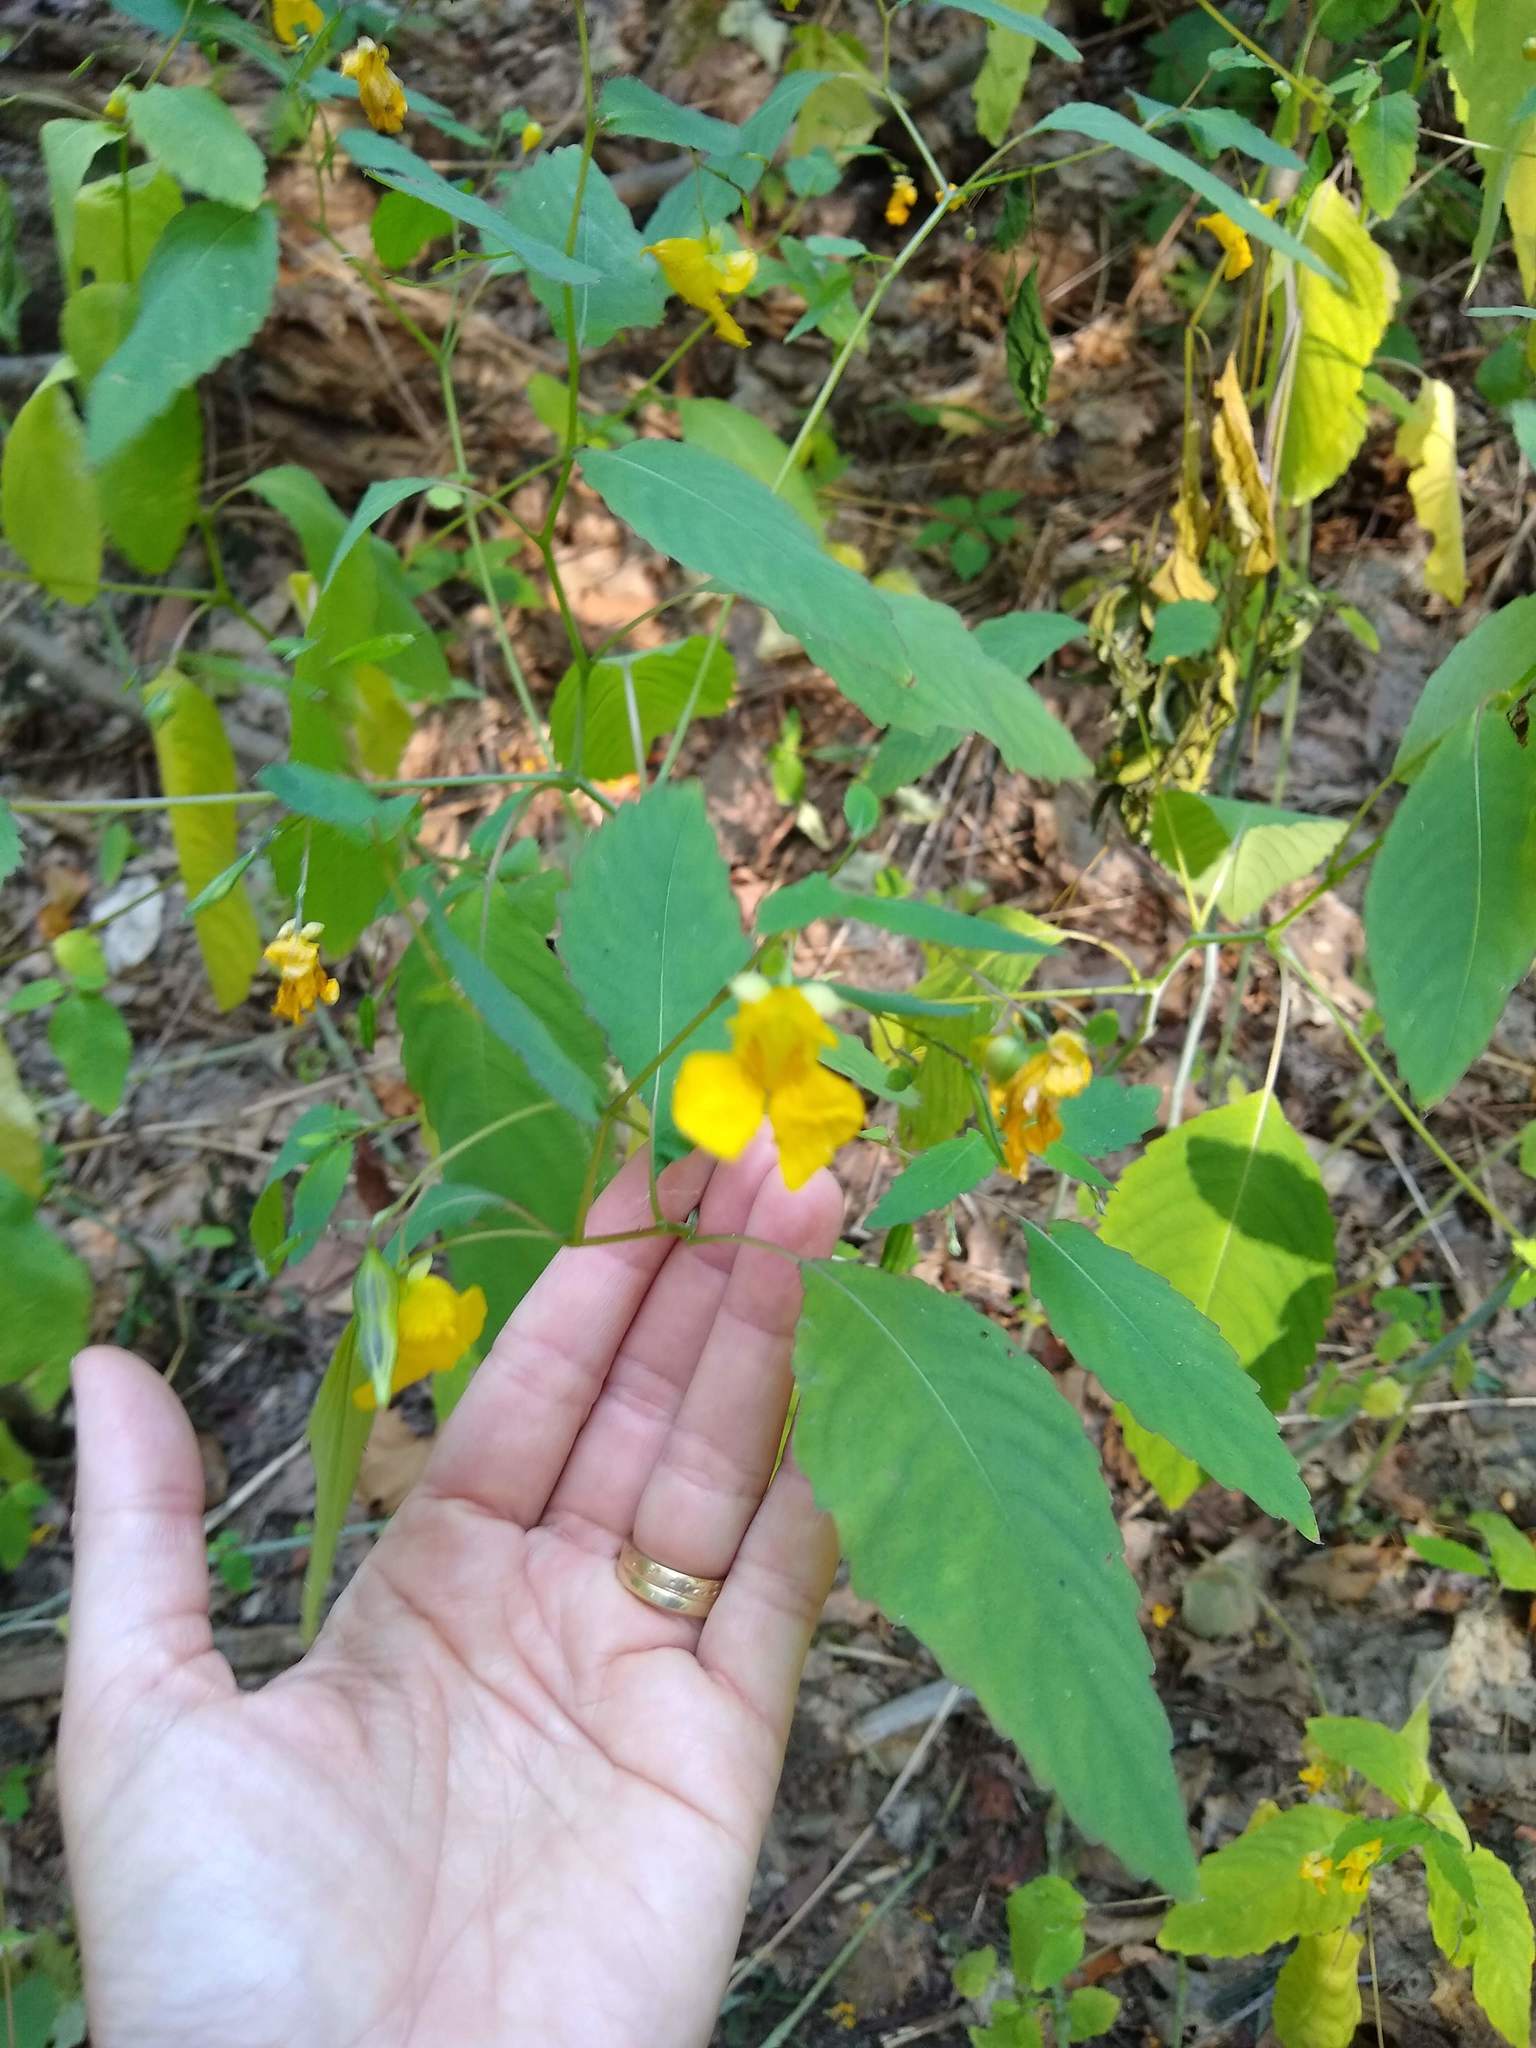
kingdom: Plantae
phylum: Tracheophyta
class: Magnoliopsida
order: Ericales
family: Balsaminaceae
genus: Impatiens
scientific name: Impatiens pallida
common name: Pale snapweed
